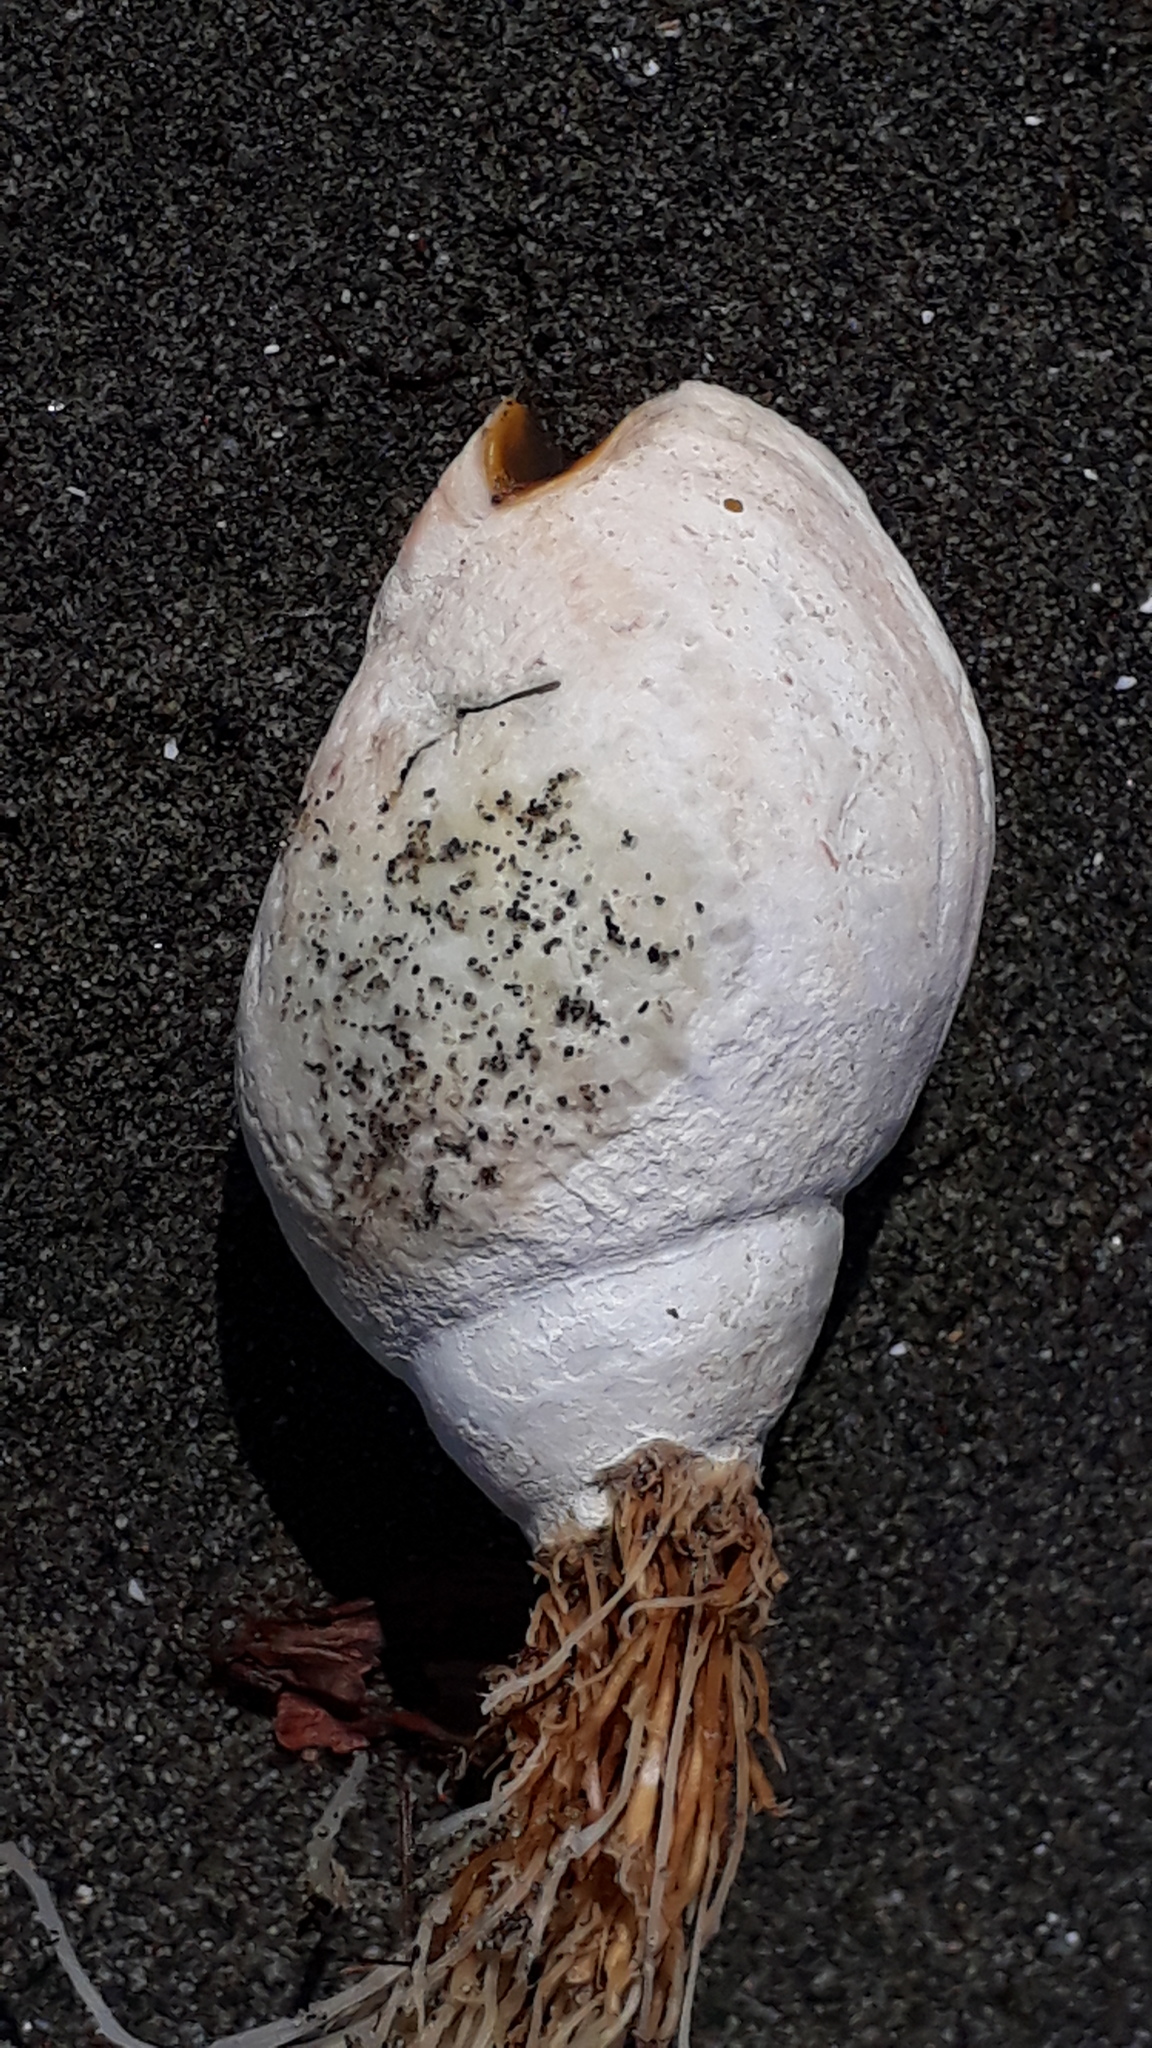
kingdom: Animalia
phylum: Mollusca
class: Gastropoda
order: Neogastropoda
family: Cominellidae
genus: Cominella
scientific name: Cominella adspersa
